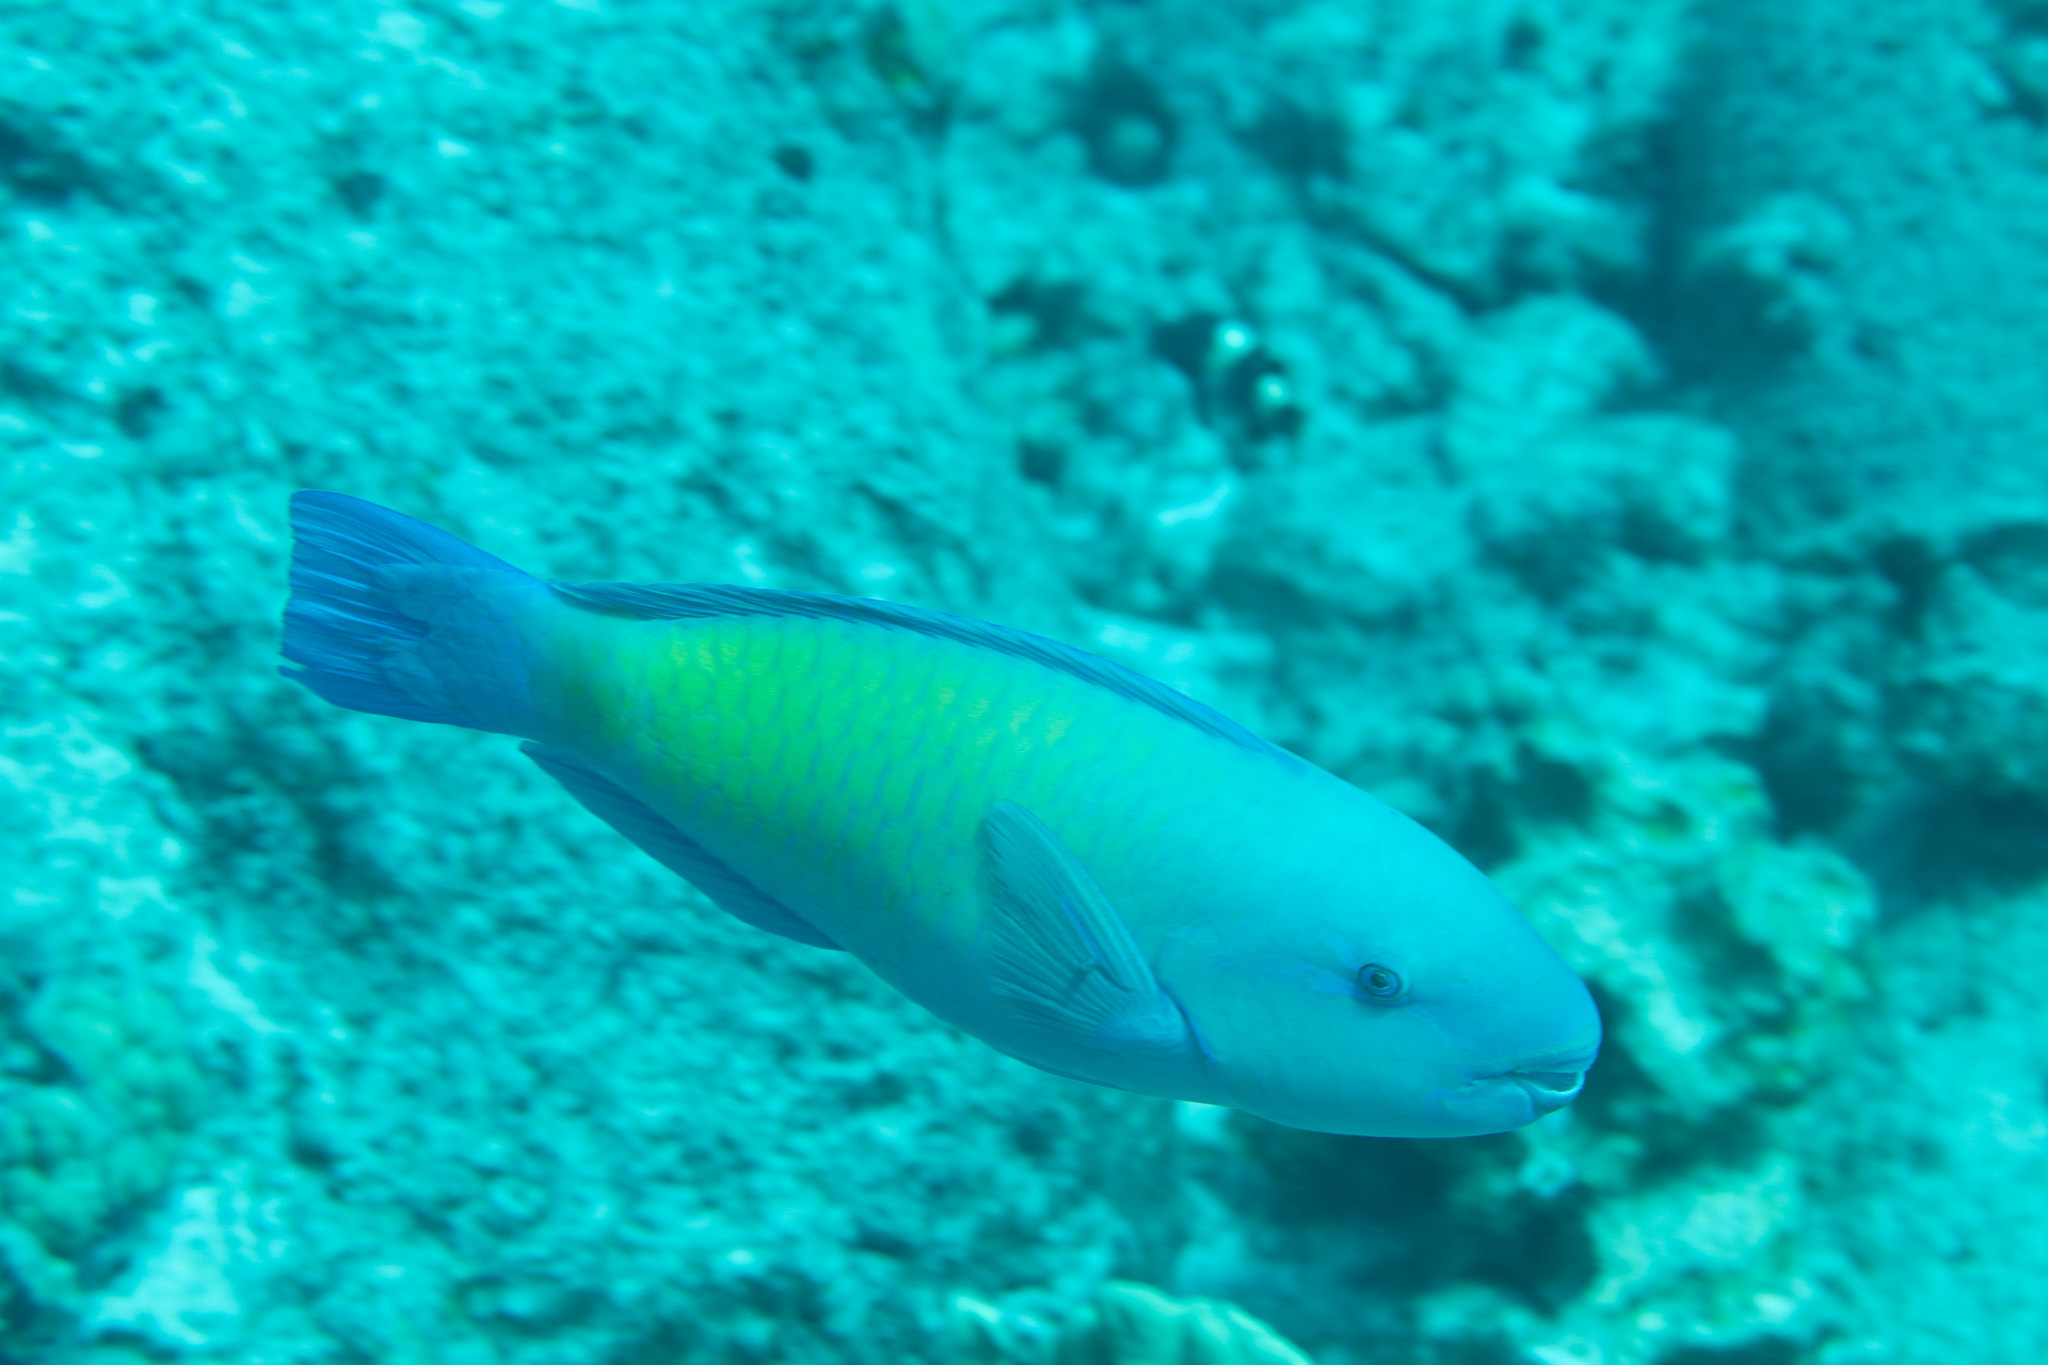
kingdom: Animalia
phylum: Chordata
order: Perciformes
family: Scaridae
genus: Chlorurus
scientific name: Chlorurus spilurus
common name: Bullethead parrotfish
